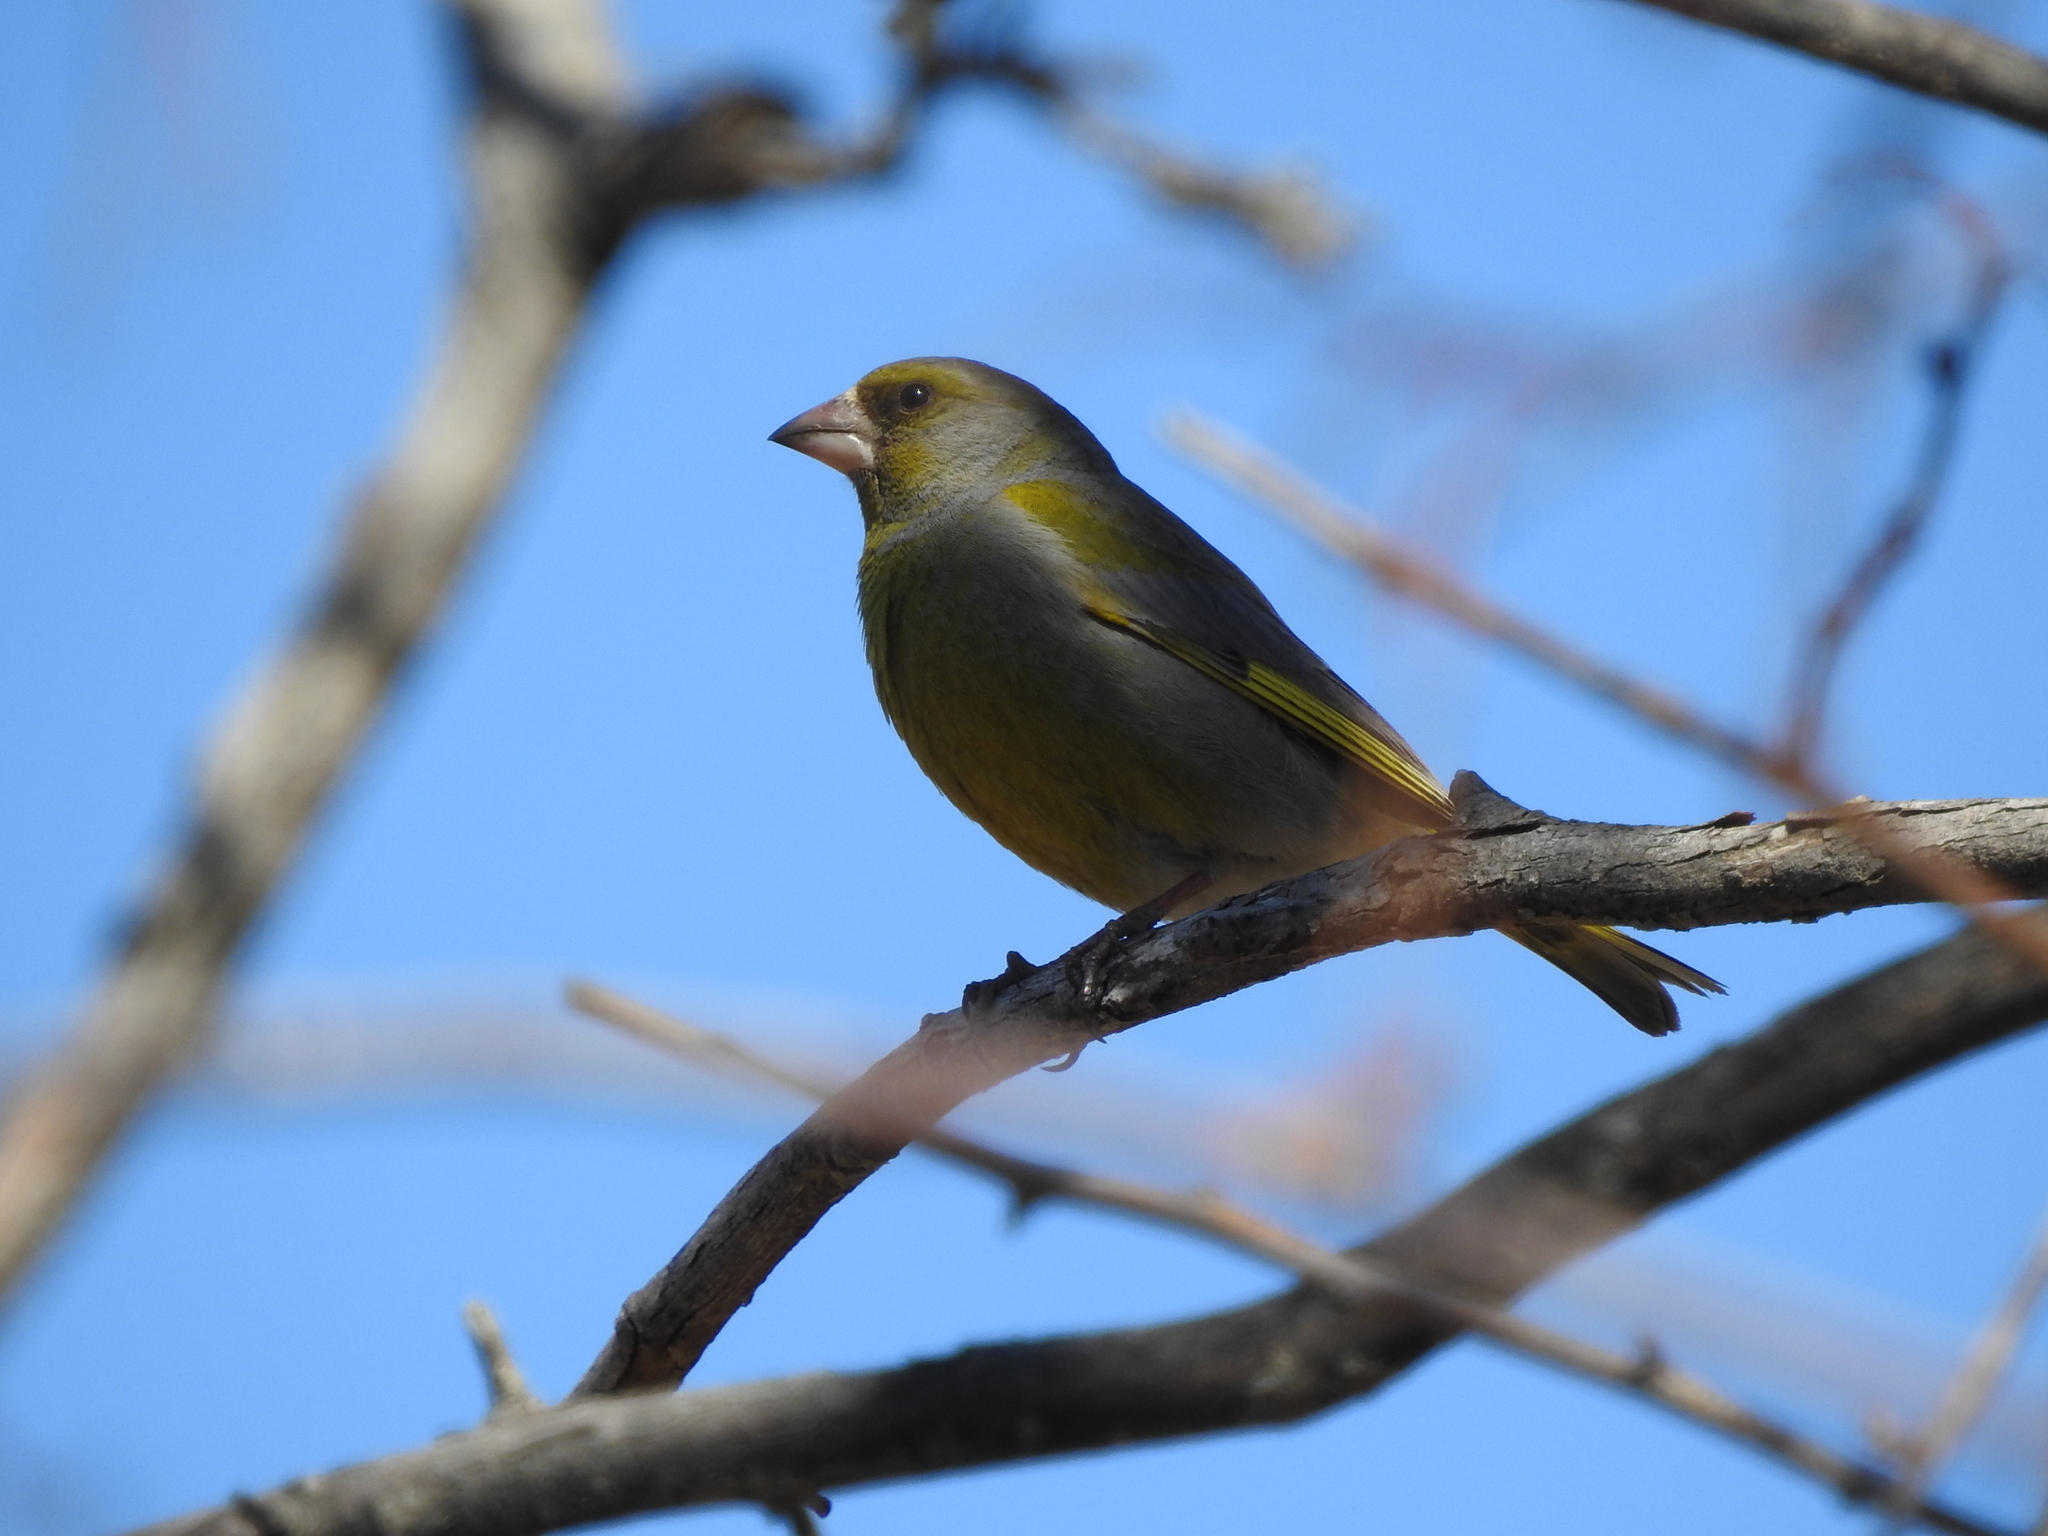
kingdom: Plantae
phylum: Tracheophyta
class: Liliopsida
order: Poales
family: Poaceae
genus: Chloris
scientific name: Chloris chloris
